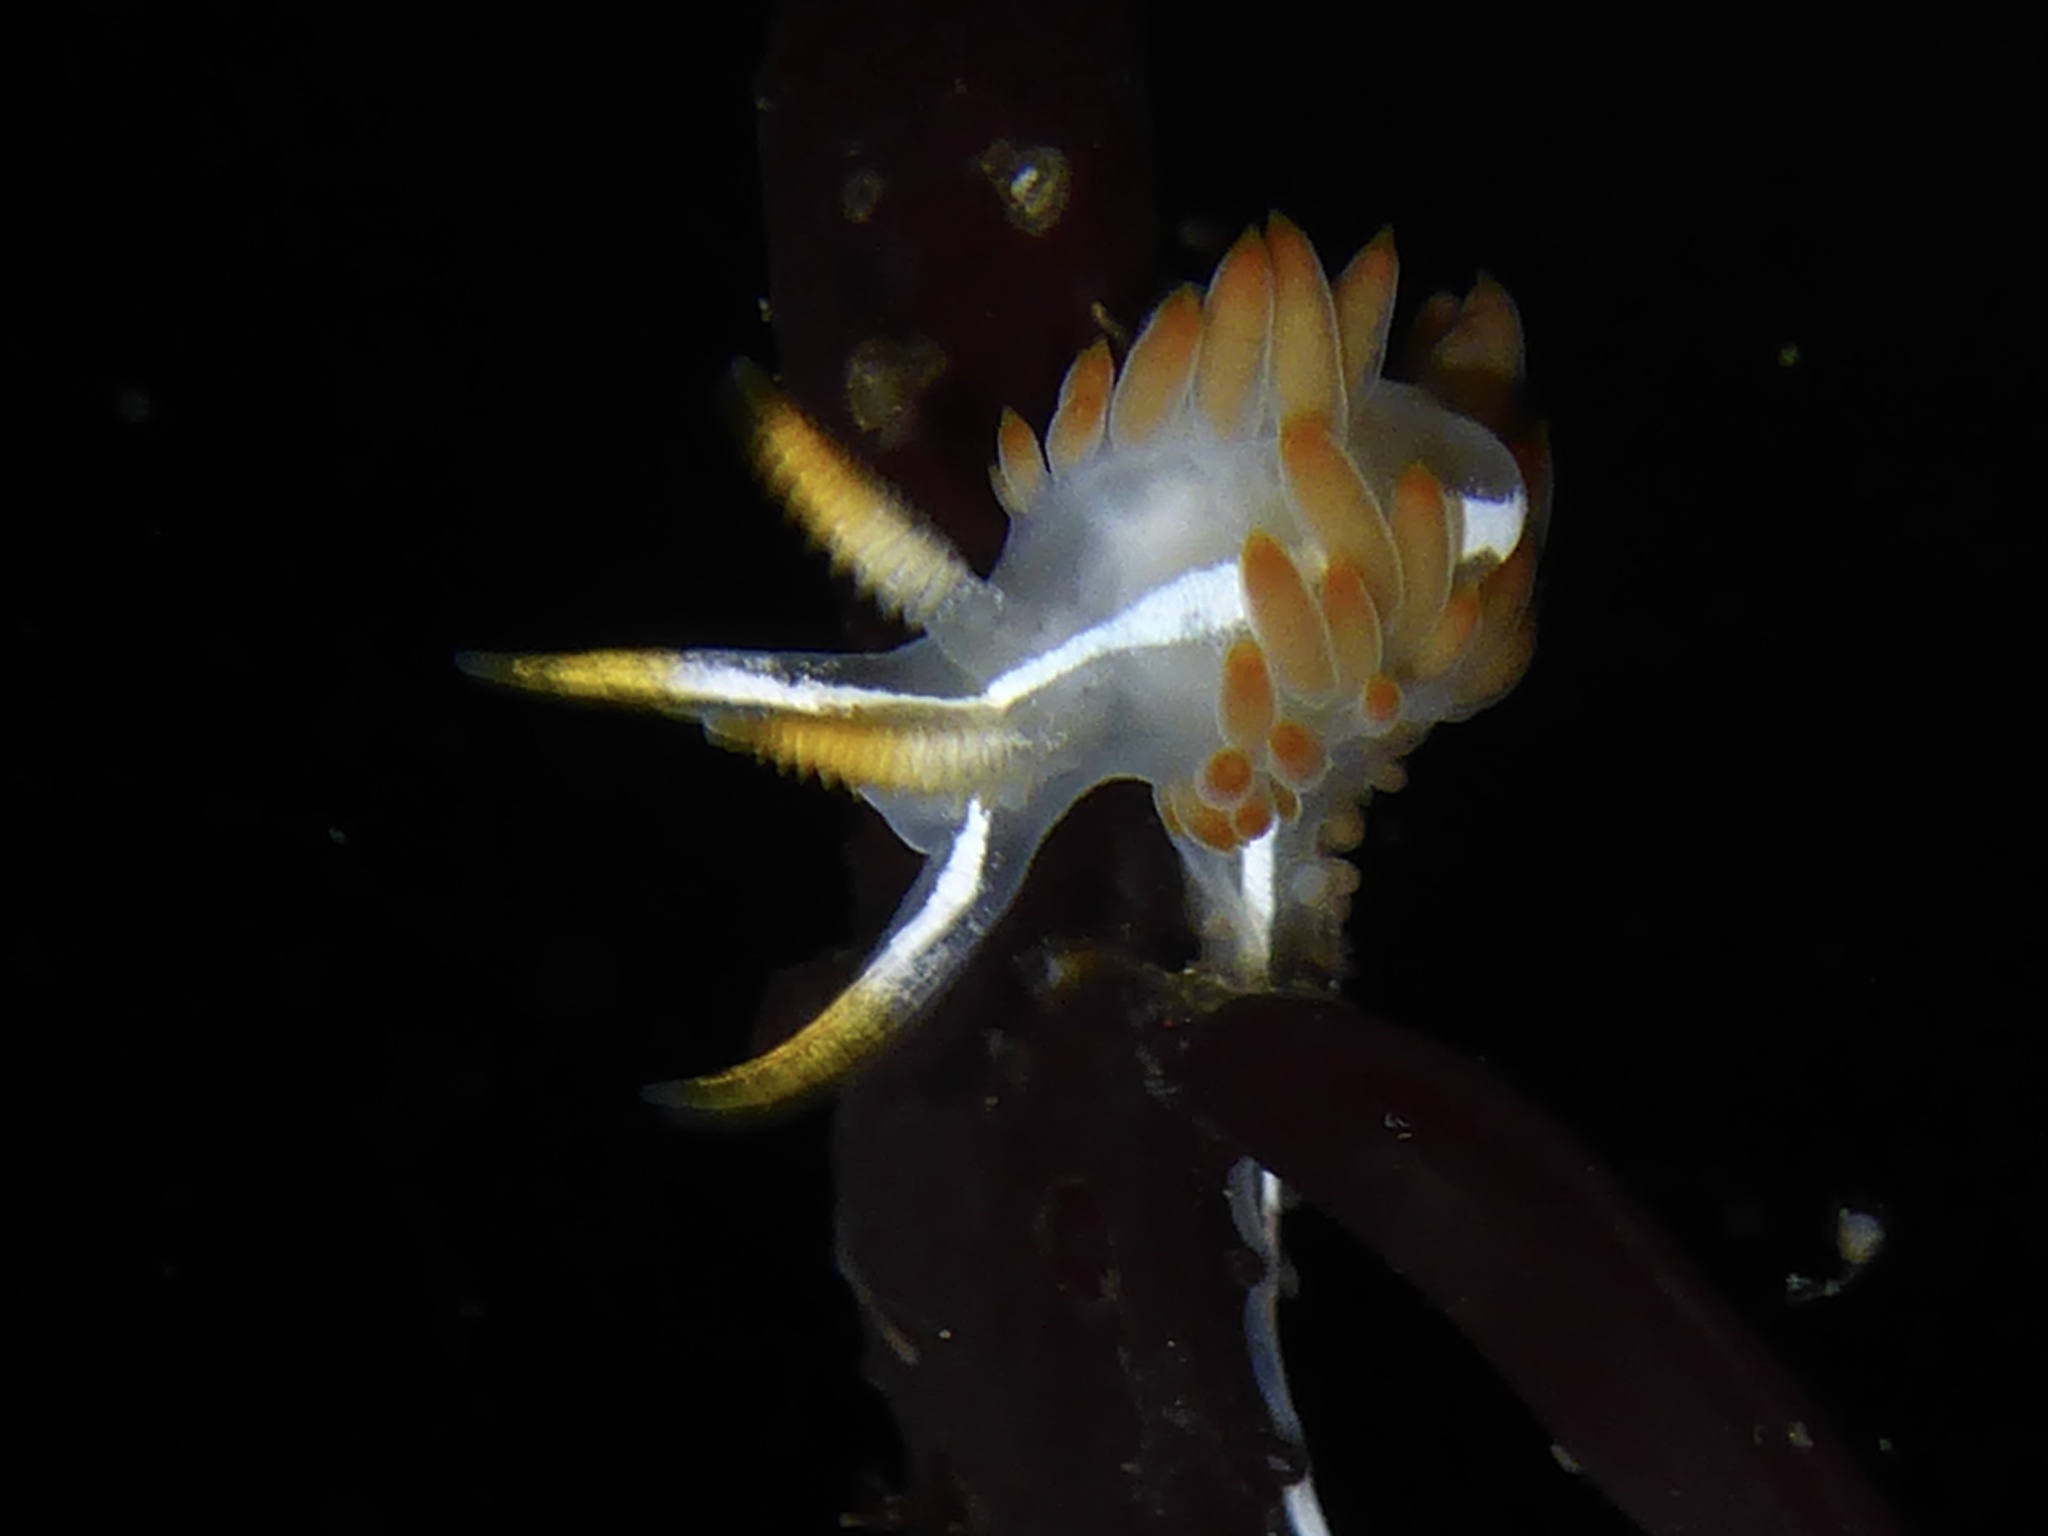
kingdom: Animalia
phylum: Mollusca
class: Gastropoda
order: Nudibranchia
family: Coryphellidae
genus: Coryphella
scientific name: Coryphella trilineata
